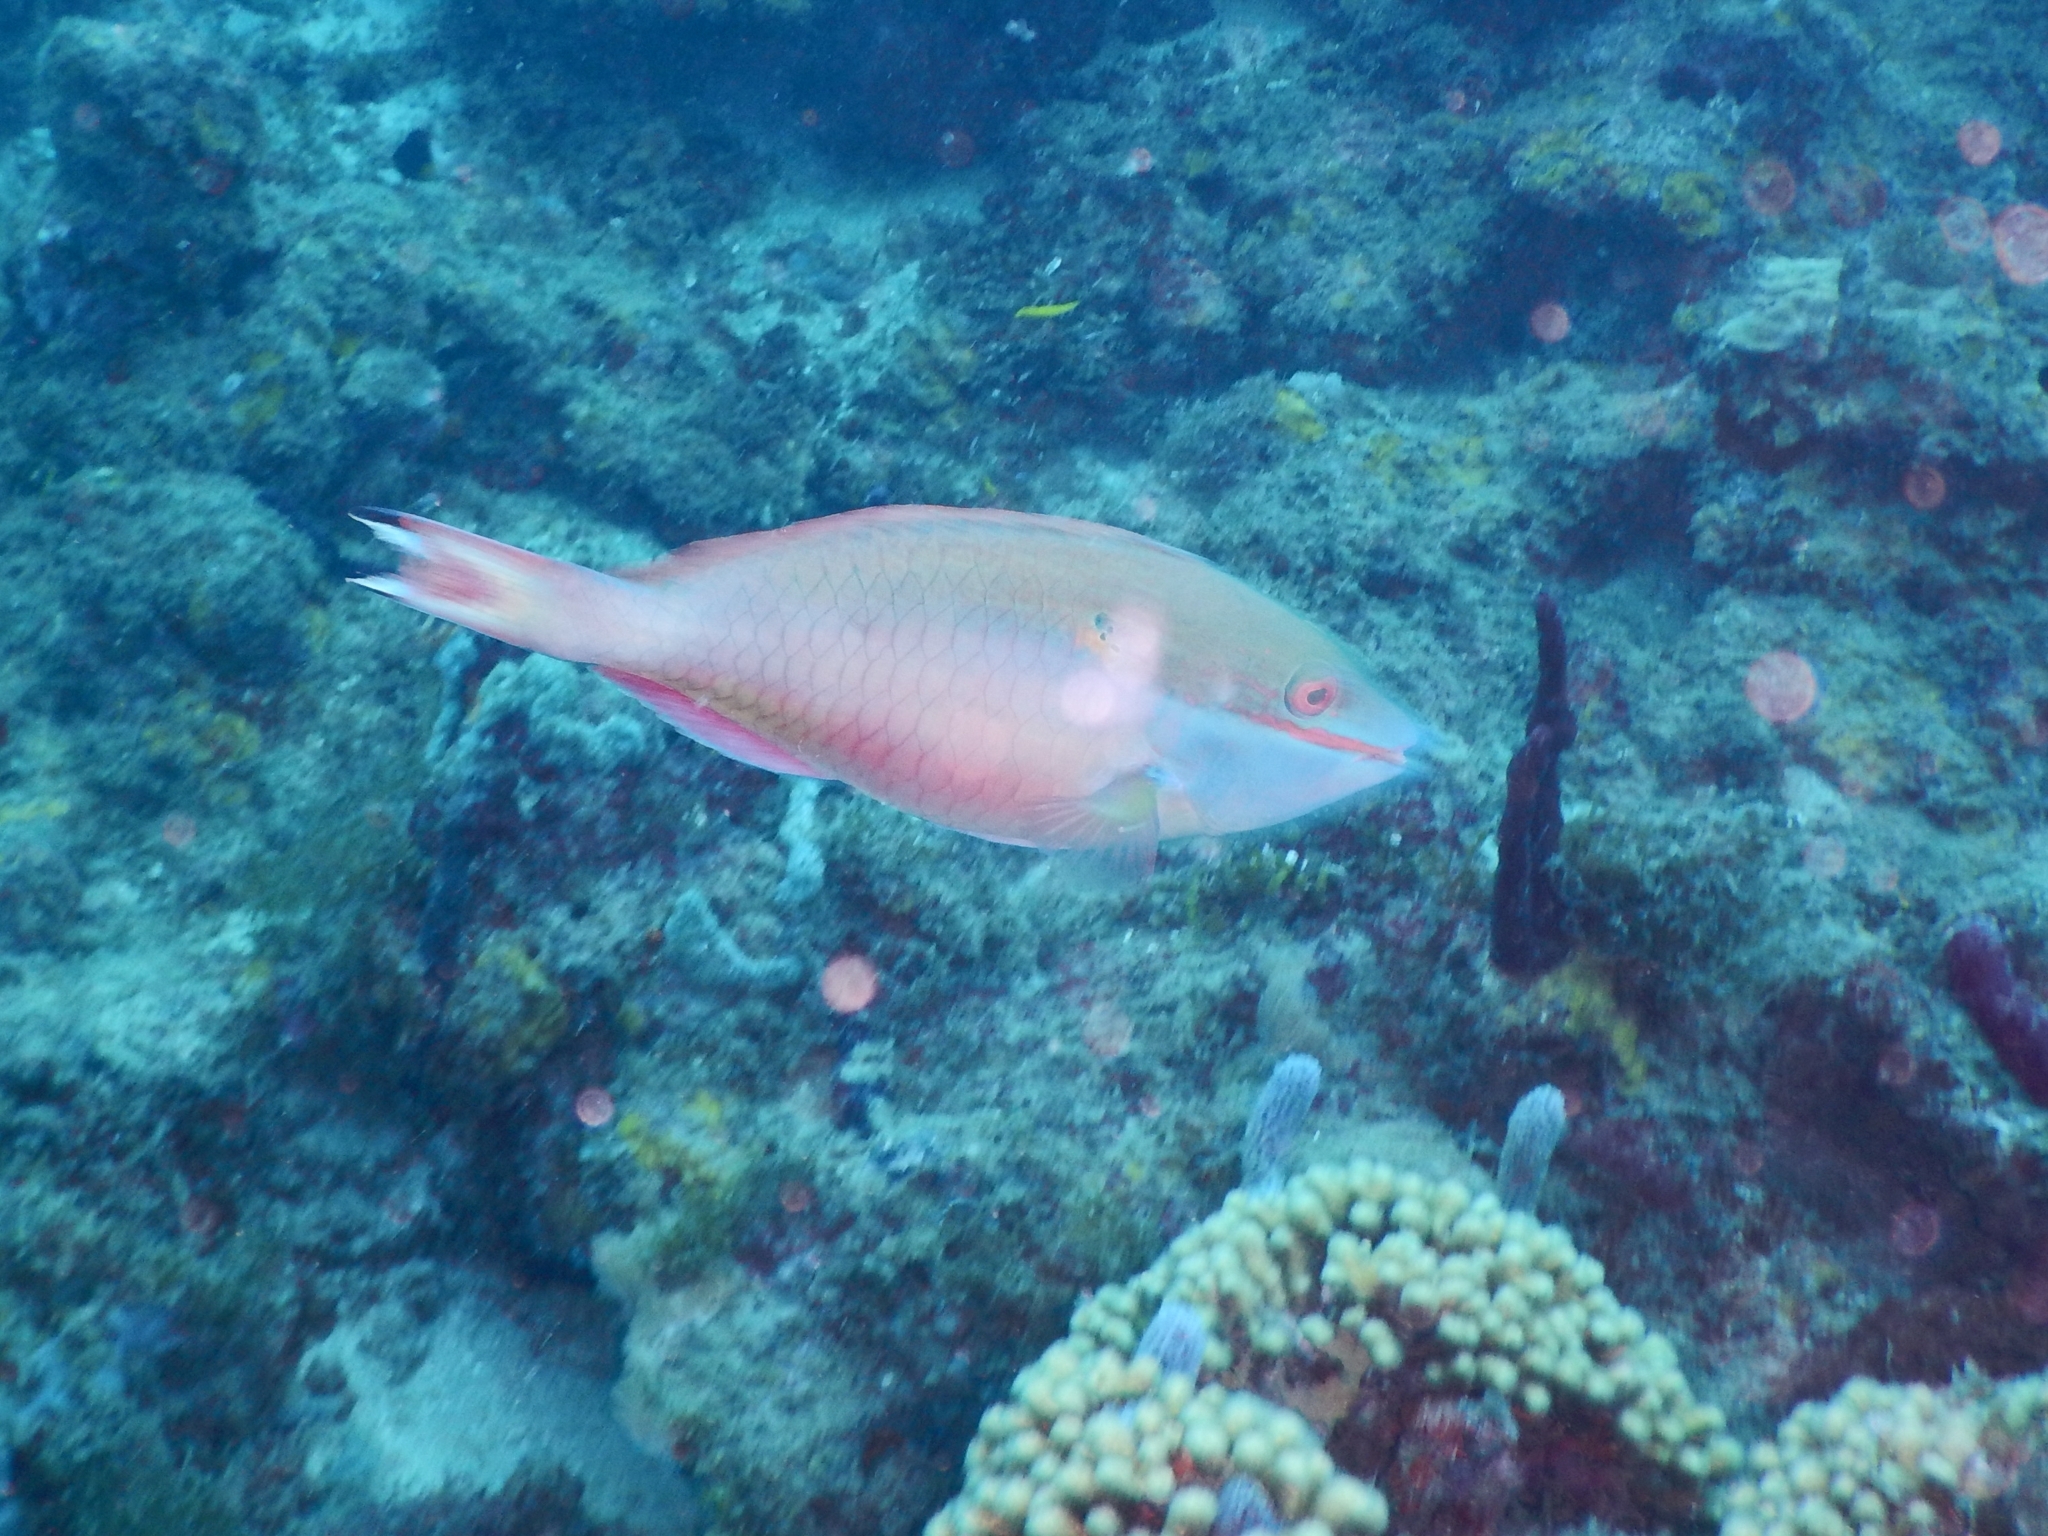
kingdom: Animalia
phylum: Chordata
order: Perciformes
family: Scaridae
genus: Sparisoma
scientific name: Sparisoma aurofrenatum
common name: Redband parrotfish
